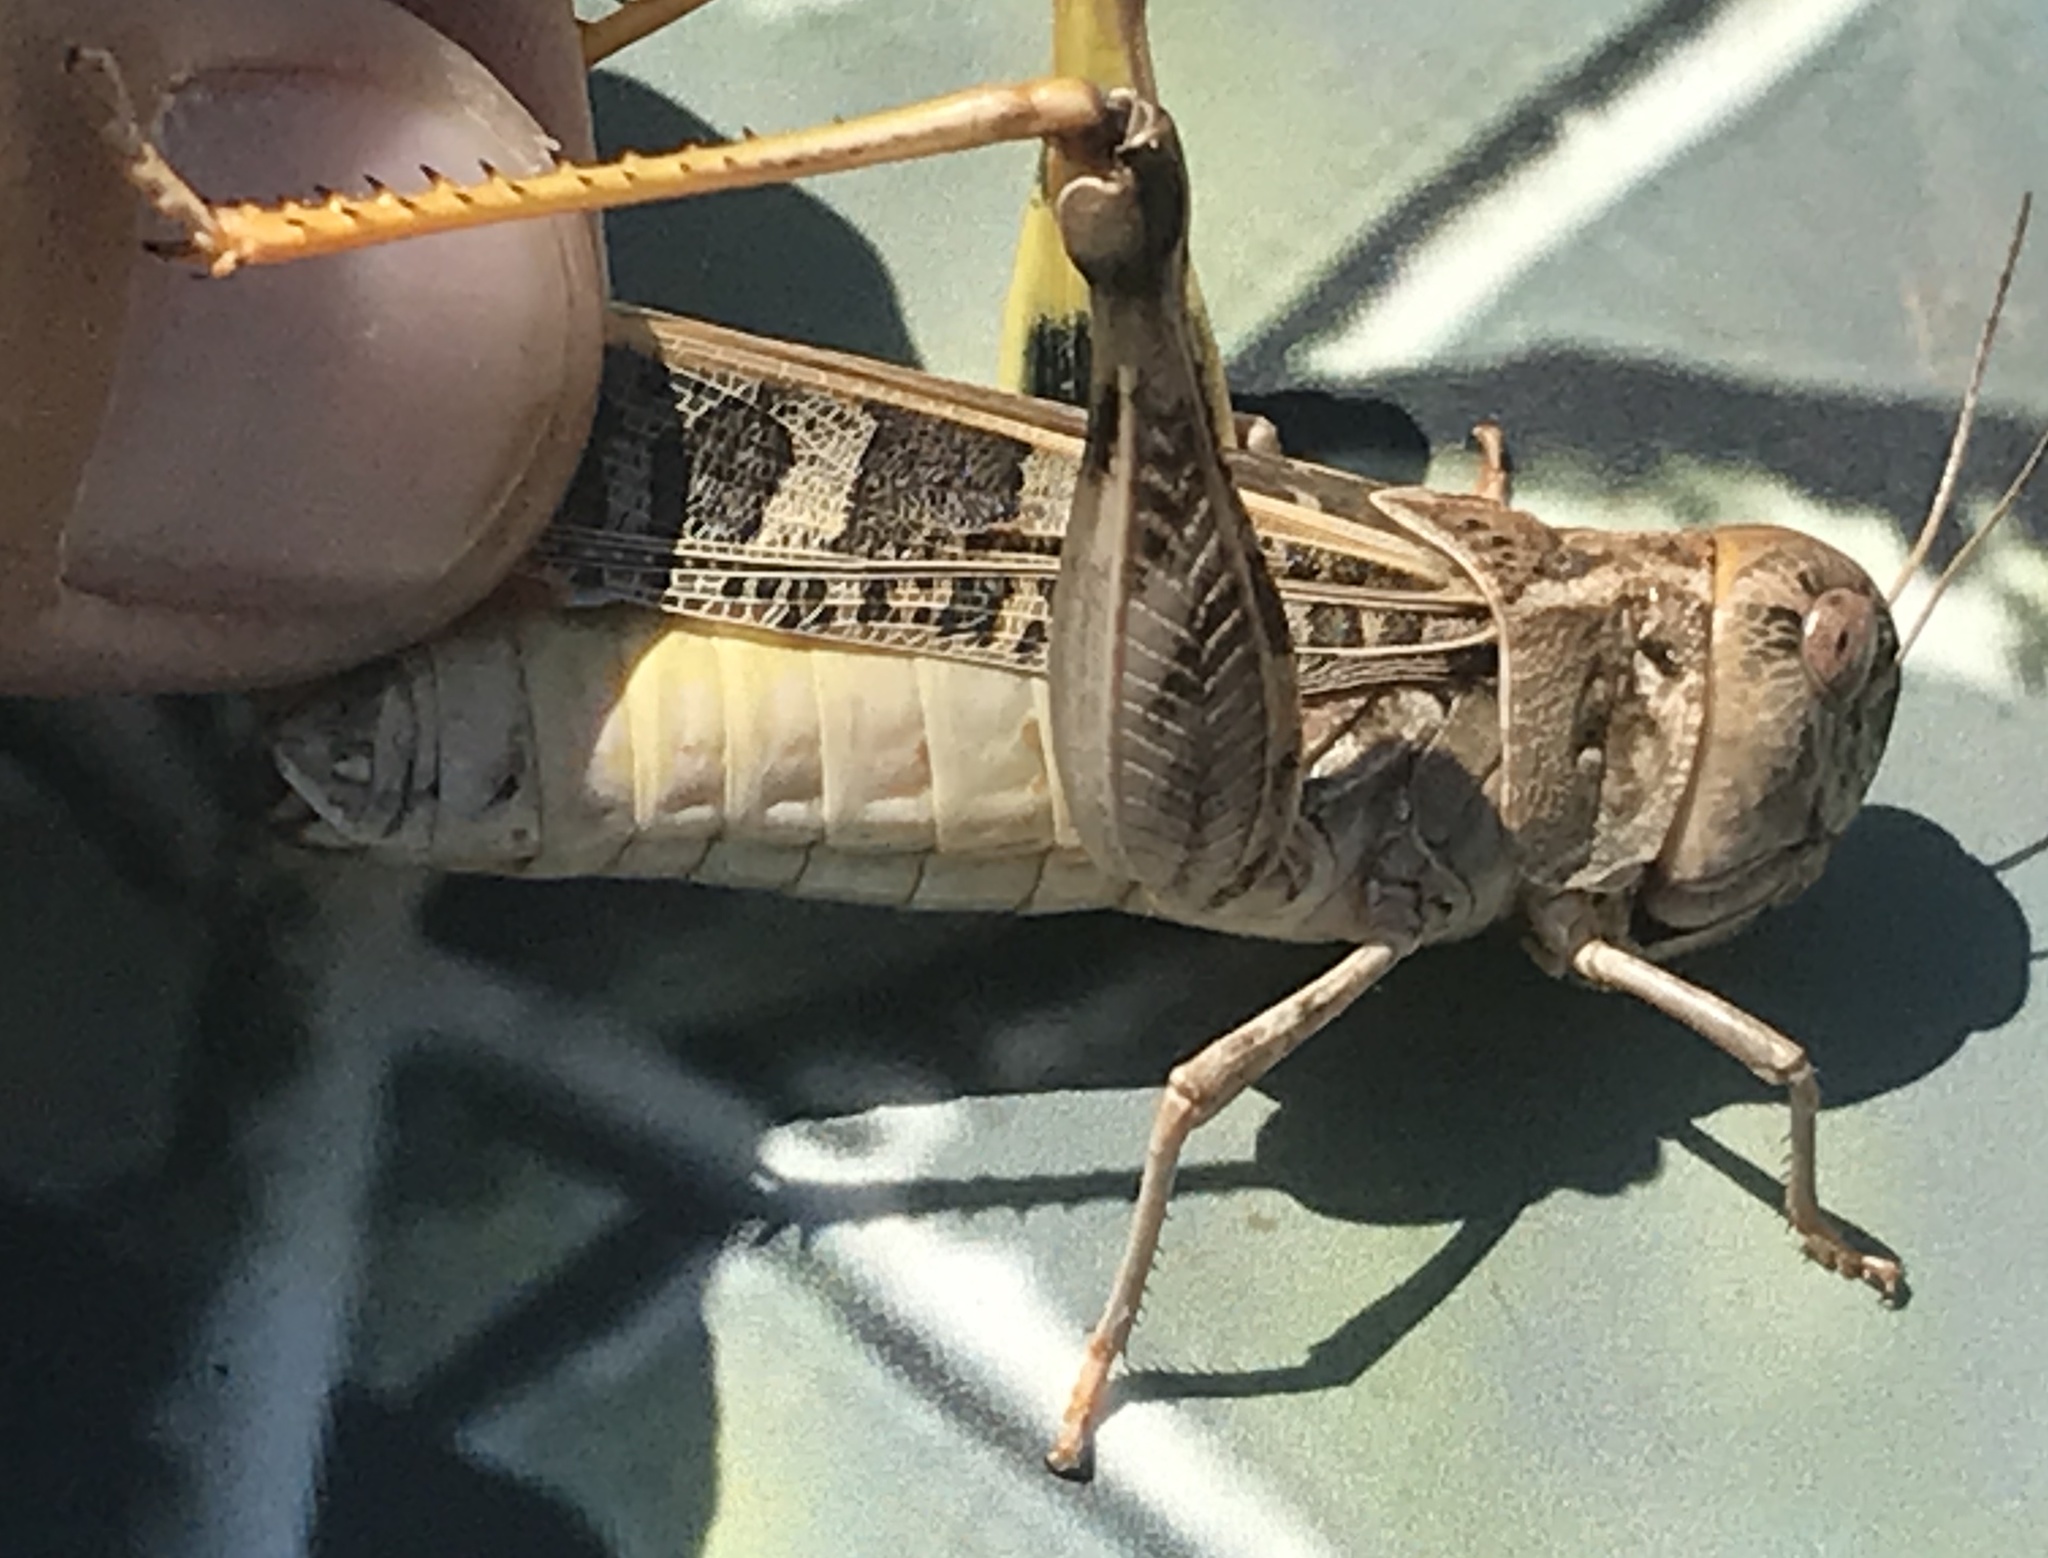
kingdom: Animalia
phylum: Arthropoda
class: Insecta
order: Orthoptera
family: Acrididae
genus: Hippiscus
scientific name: Hippiscus ocelote
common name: Wrinkled grasshopper
